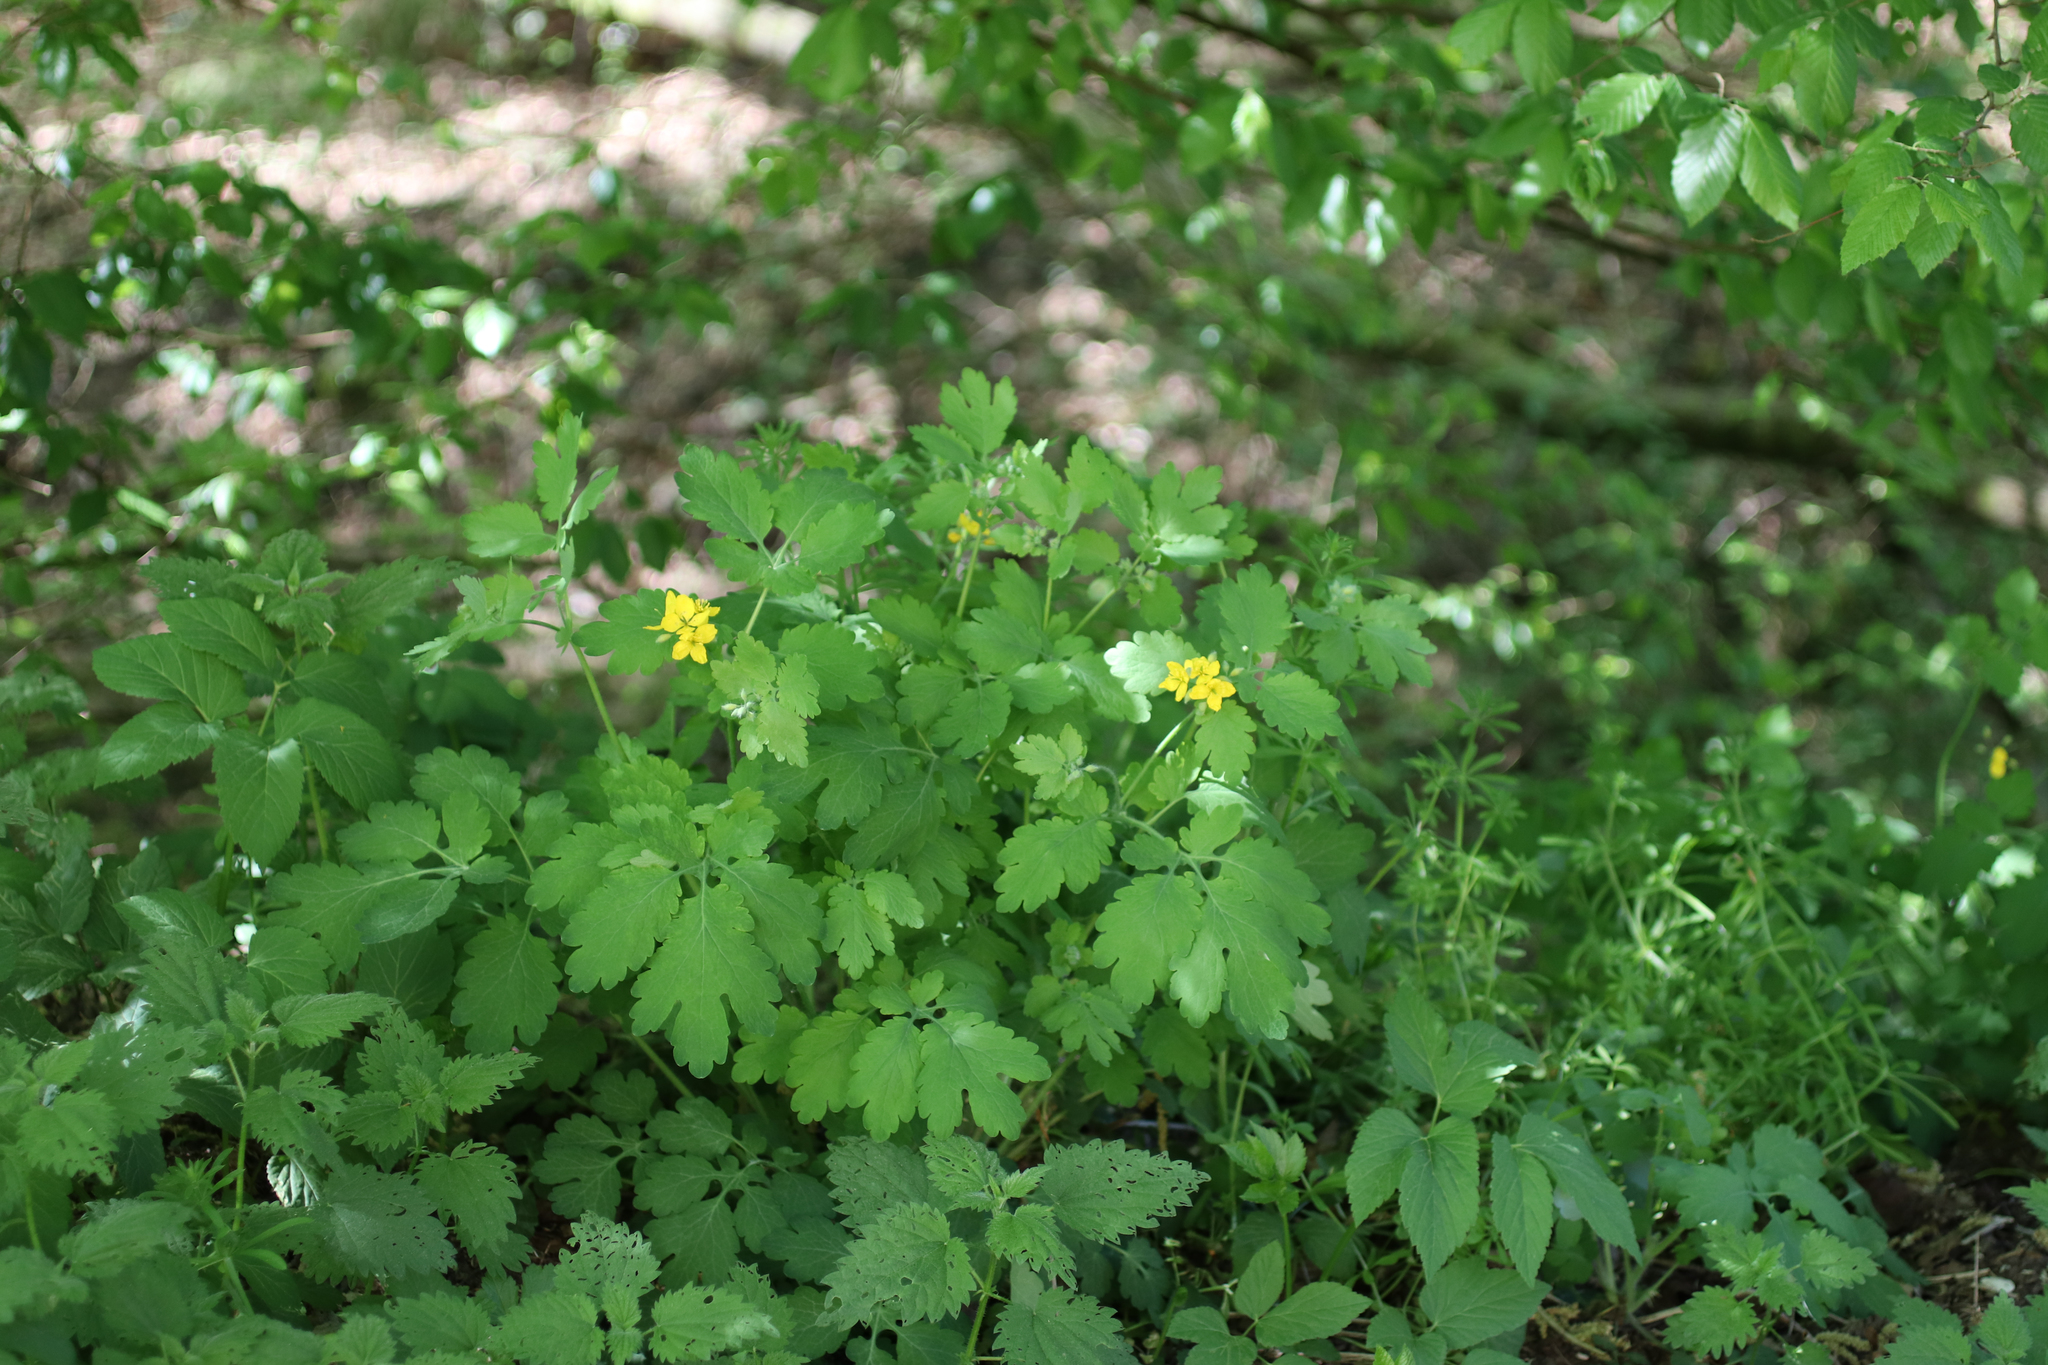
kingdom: Plantae
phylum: Tracheophyta
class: Magnoliopsida
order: Ranunculales
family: Papaveraceae
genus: Chelidonium
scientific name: Chelidonium majus
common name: Greater celandine
